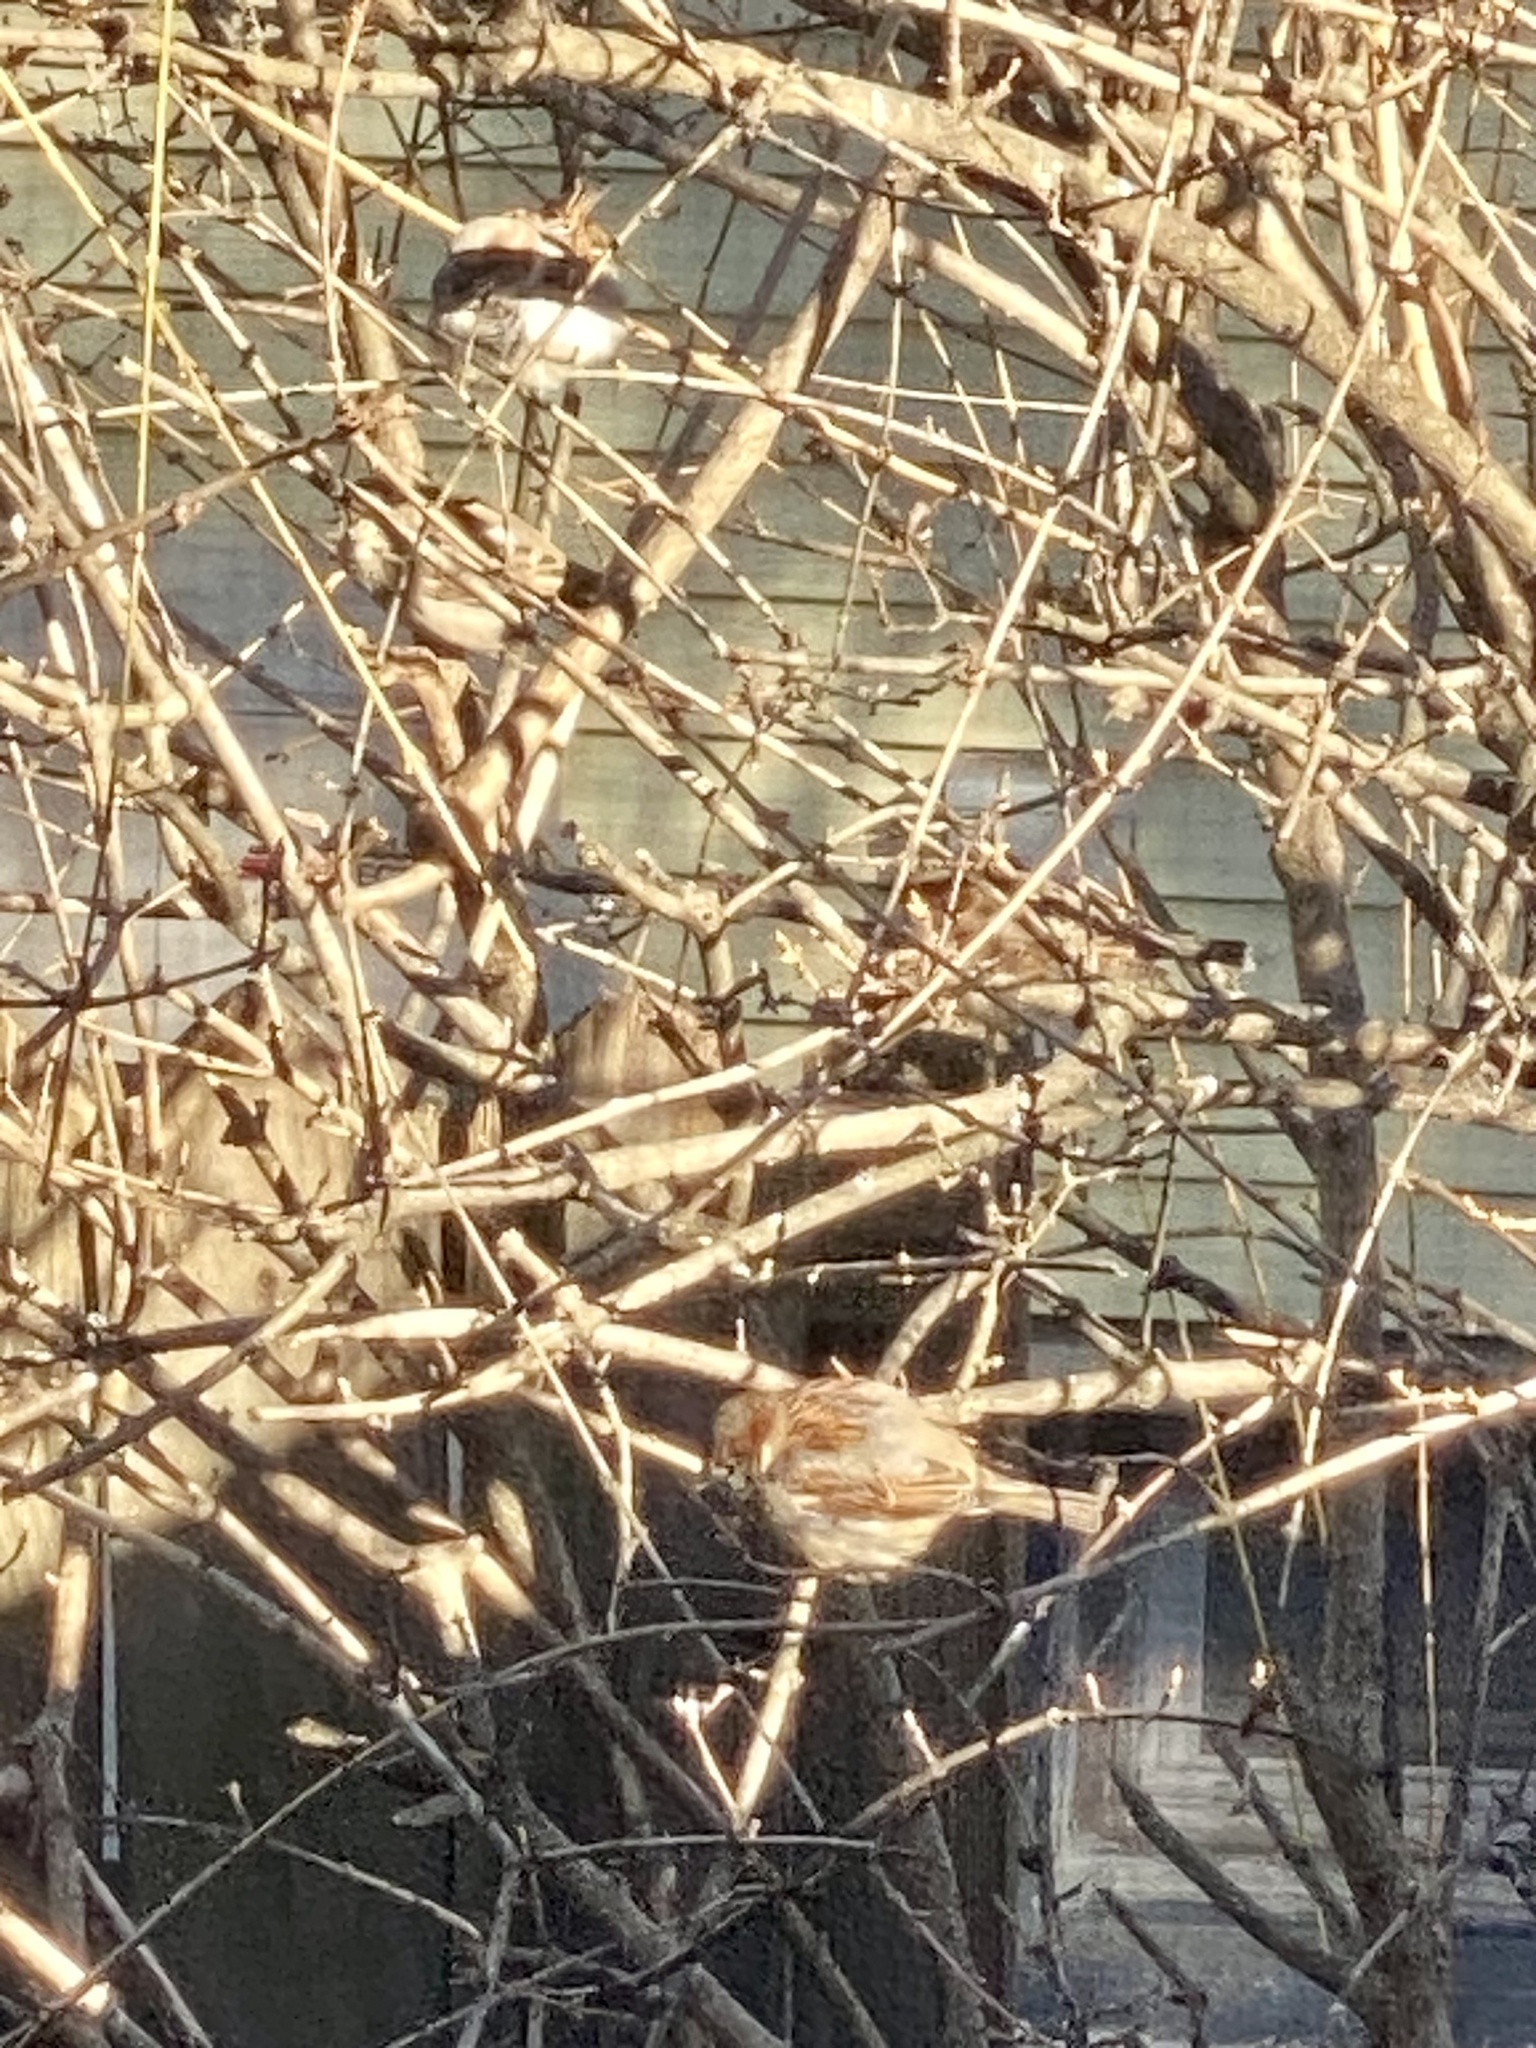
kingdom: Animalia
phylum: Chordata
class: Aves
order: Passeriformes
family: Passeridae
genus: Passer
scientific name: Passer domesticus
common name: House sparrow
